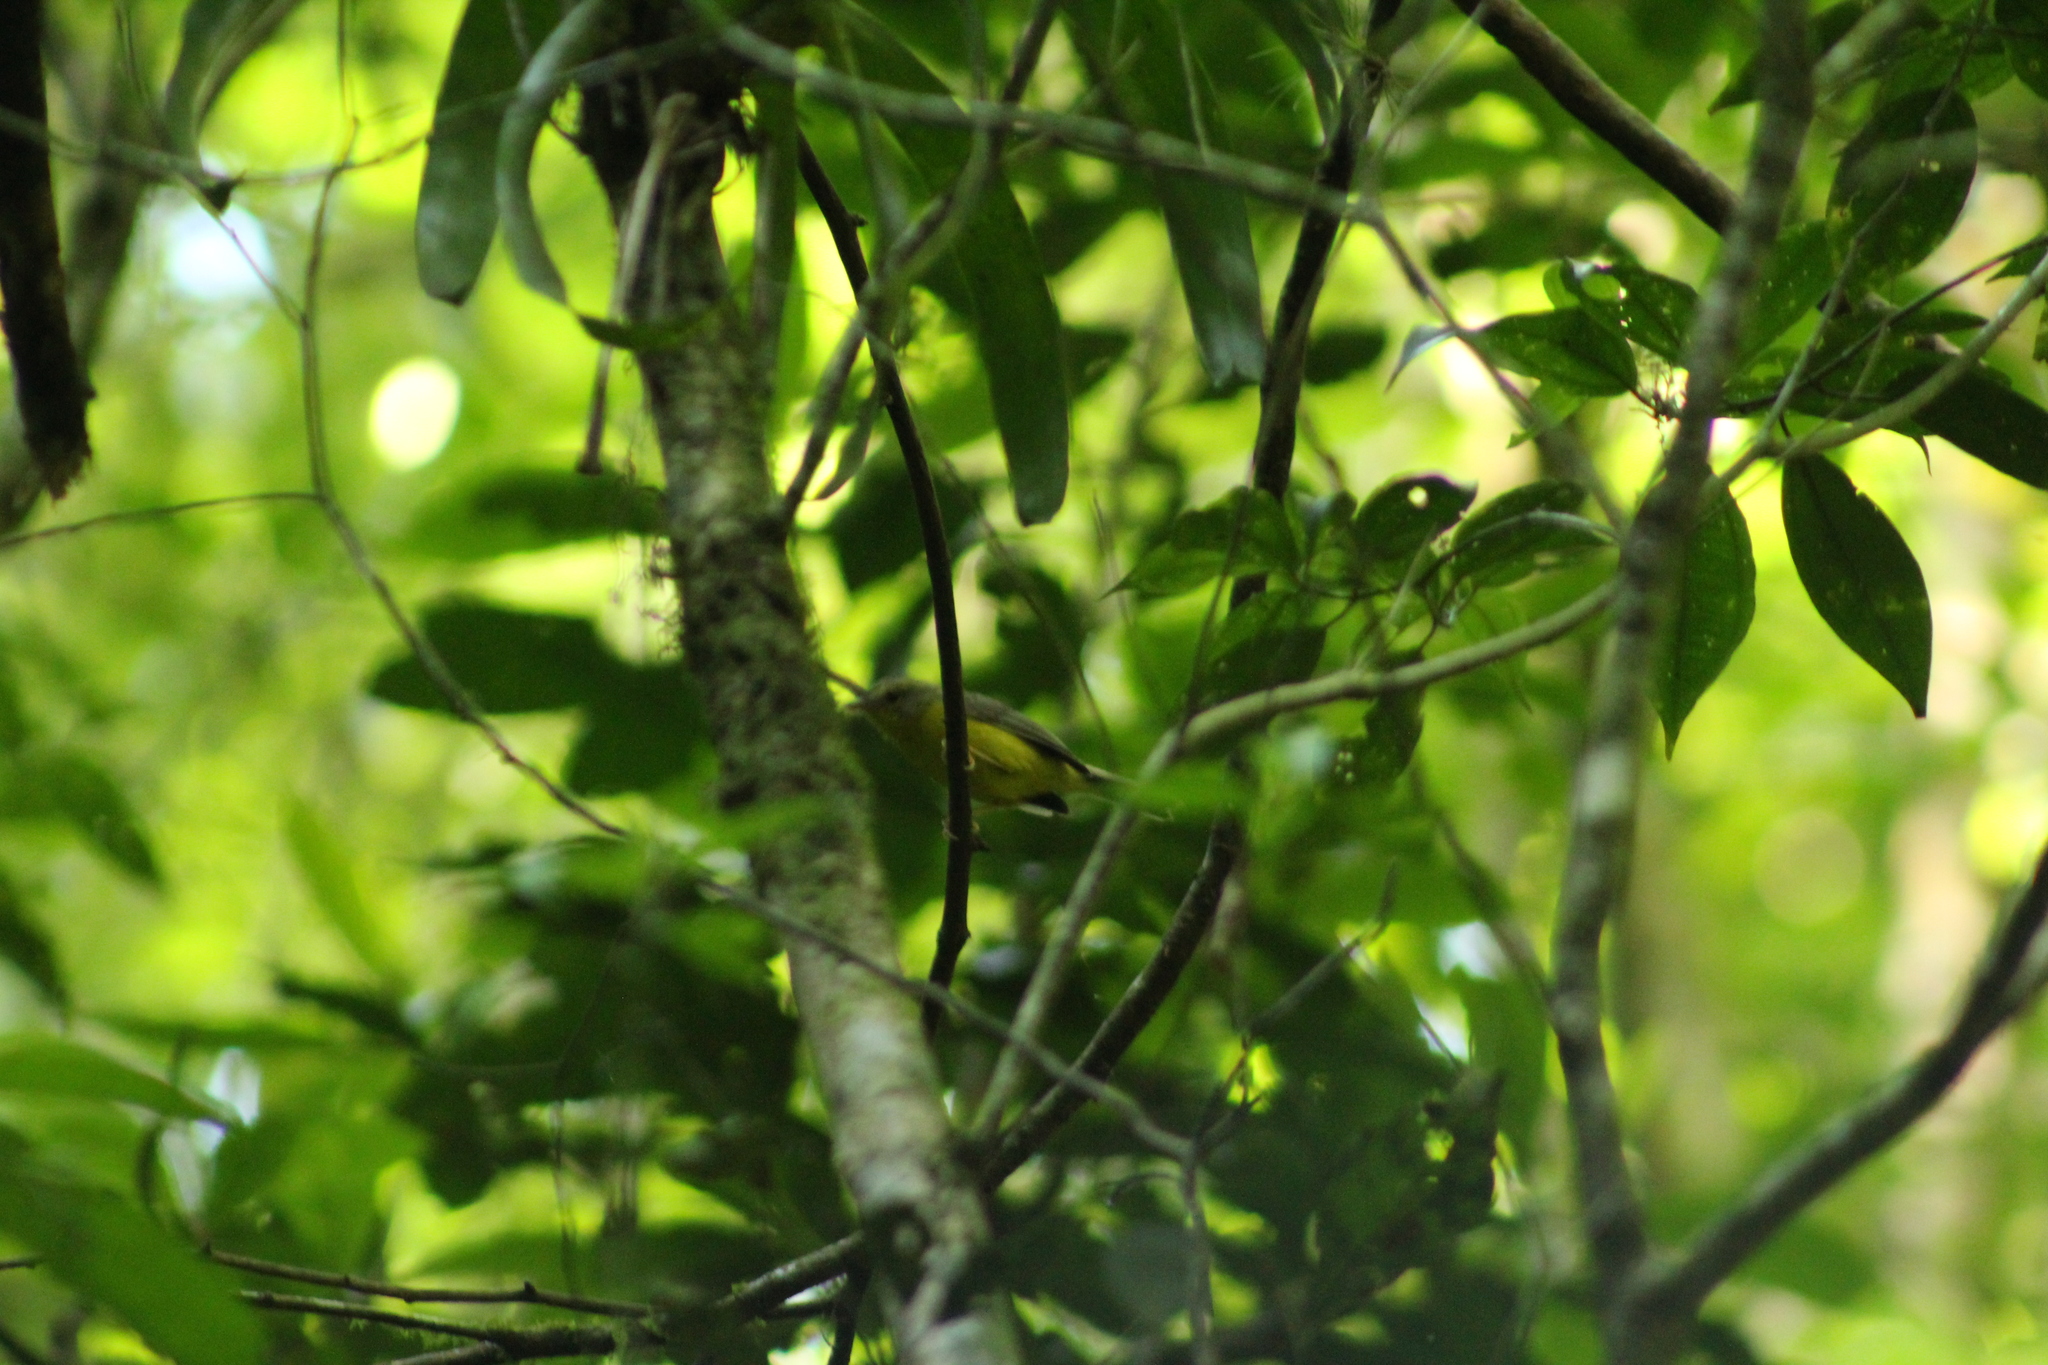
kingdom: Animalia
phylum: Chordata
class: Aves
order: Passeriformes
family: Parulidae
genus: Basileuterus
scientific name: Basileuterus culicivorus
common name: Golden-crowned warbler
